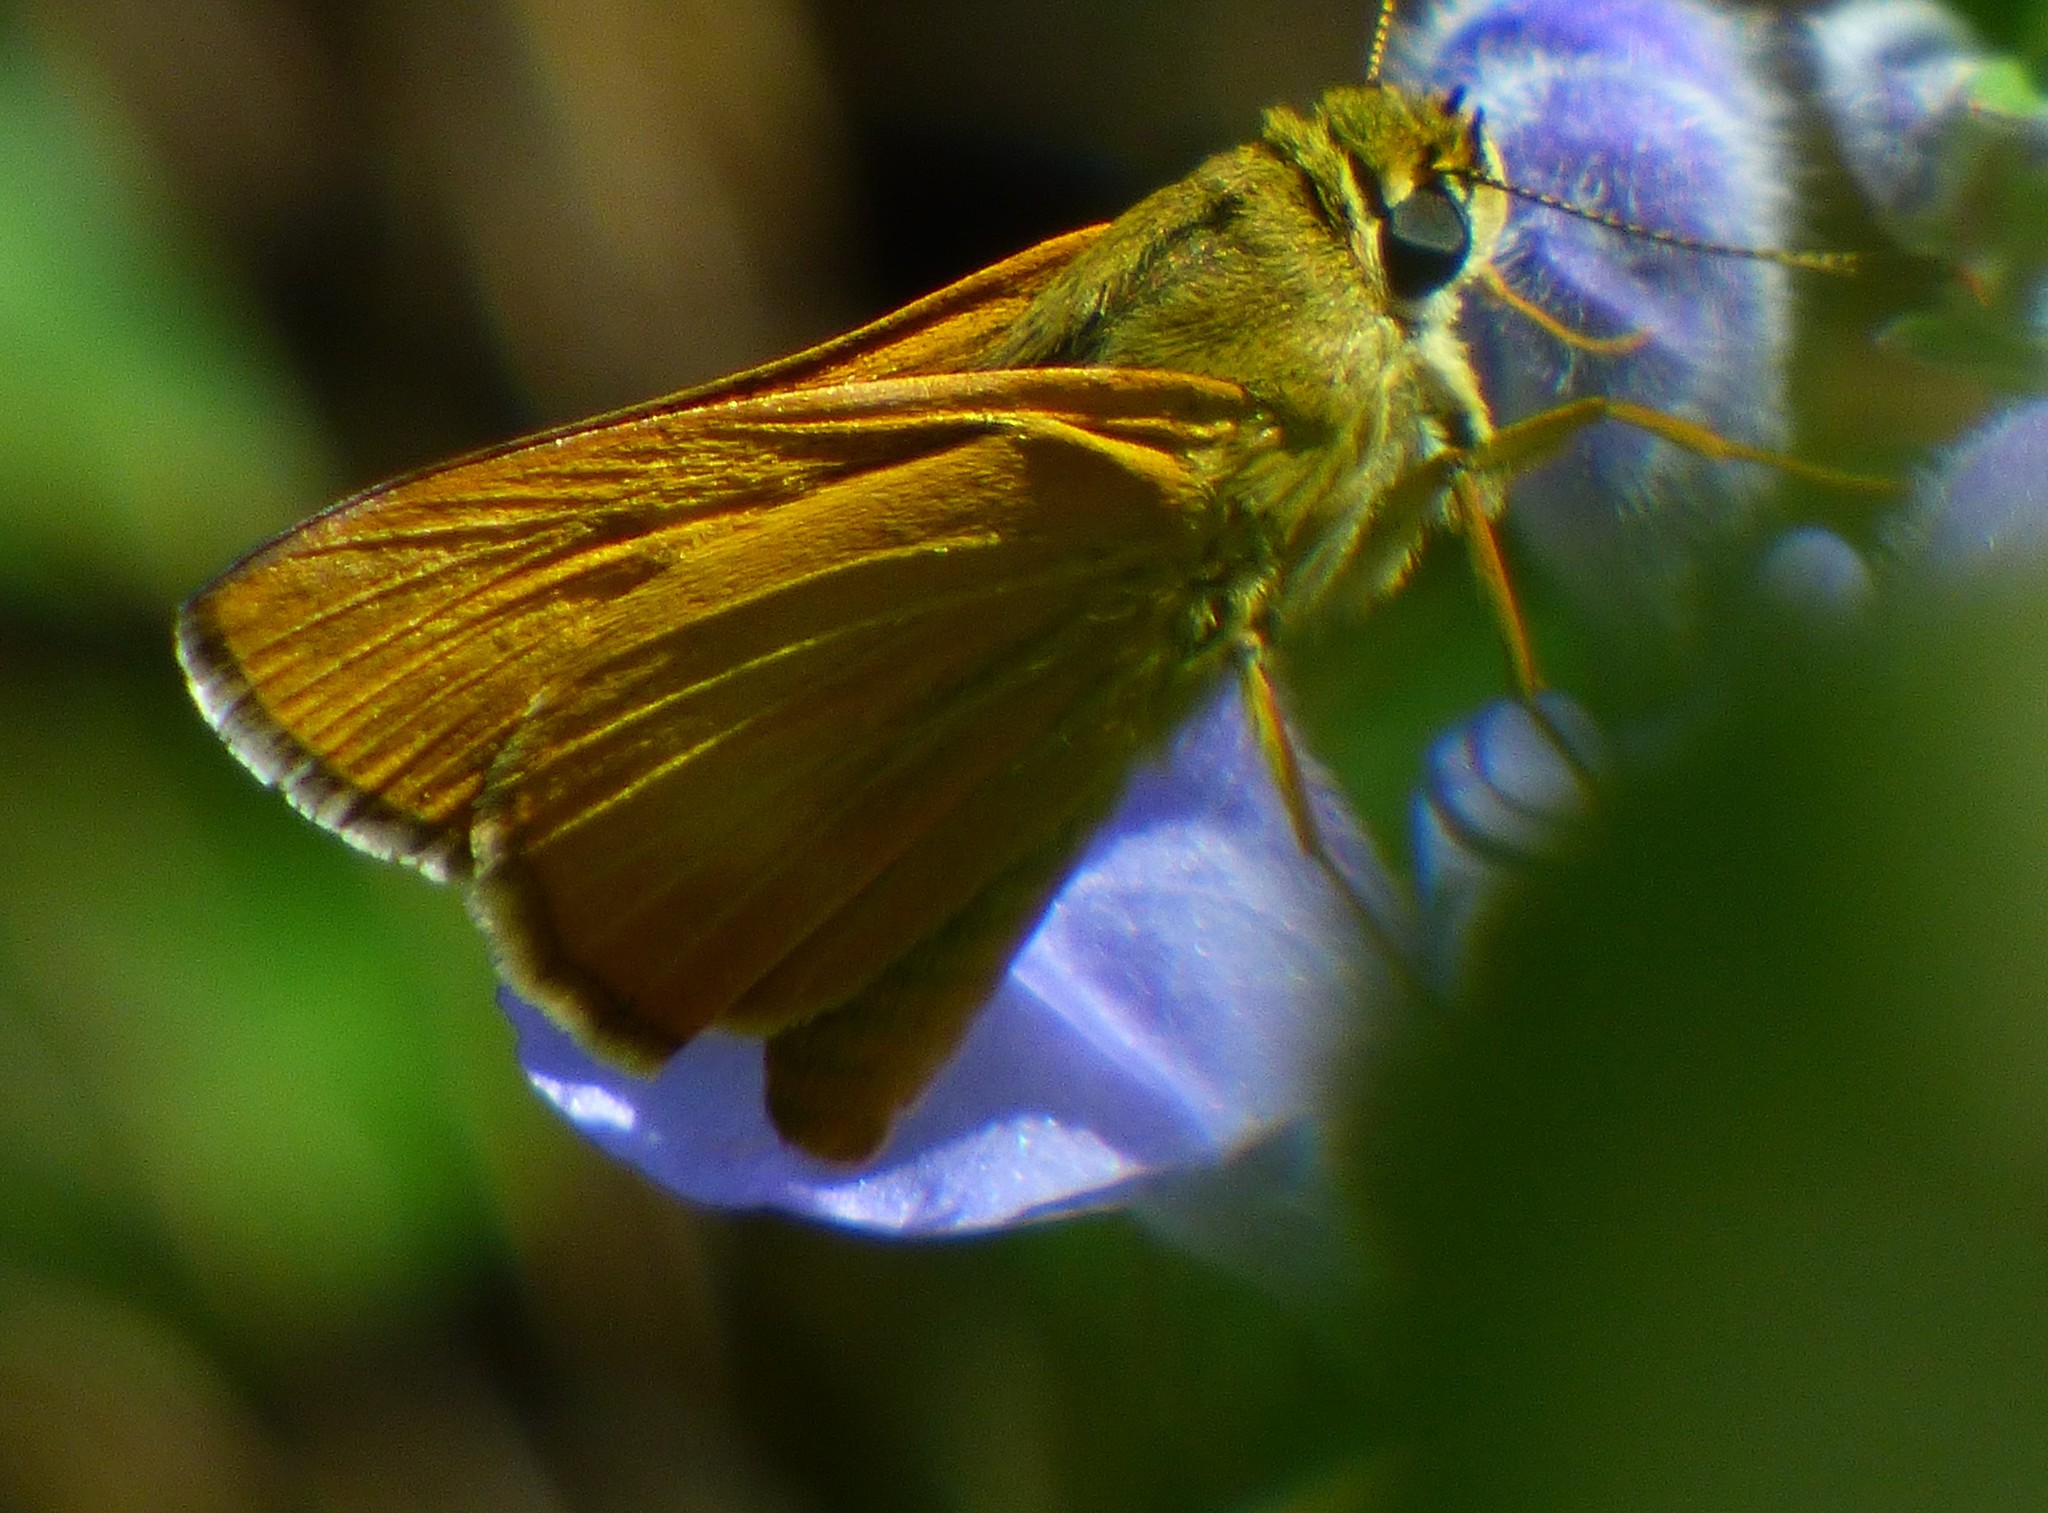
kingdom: Animalia
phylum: Arthropoda
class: Insecta
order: Lepidoptera
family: Hesperiidae
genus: Problema
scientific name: Problema byssus
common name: Byssus skipper
